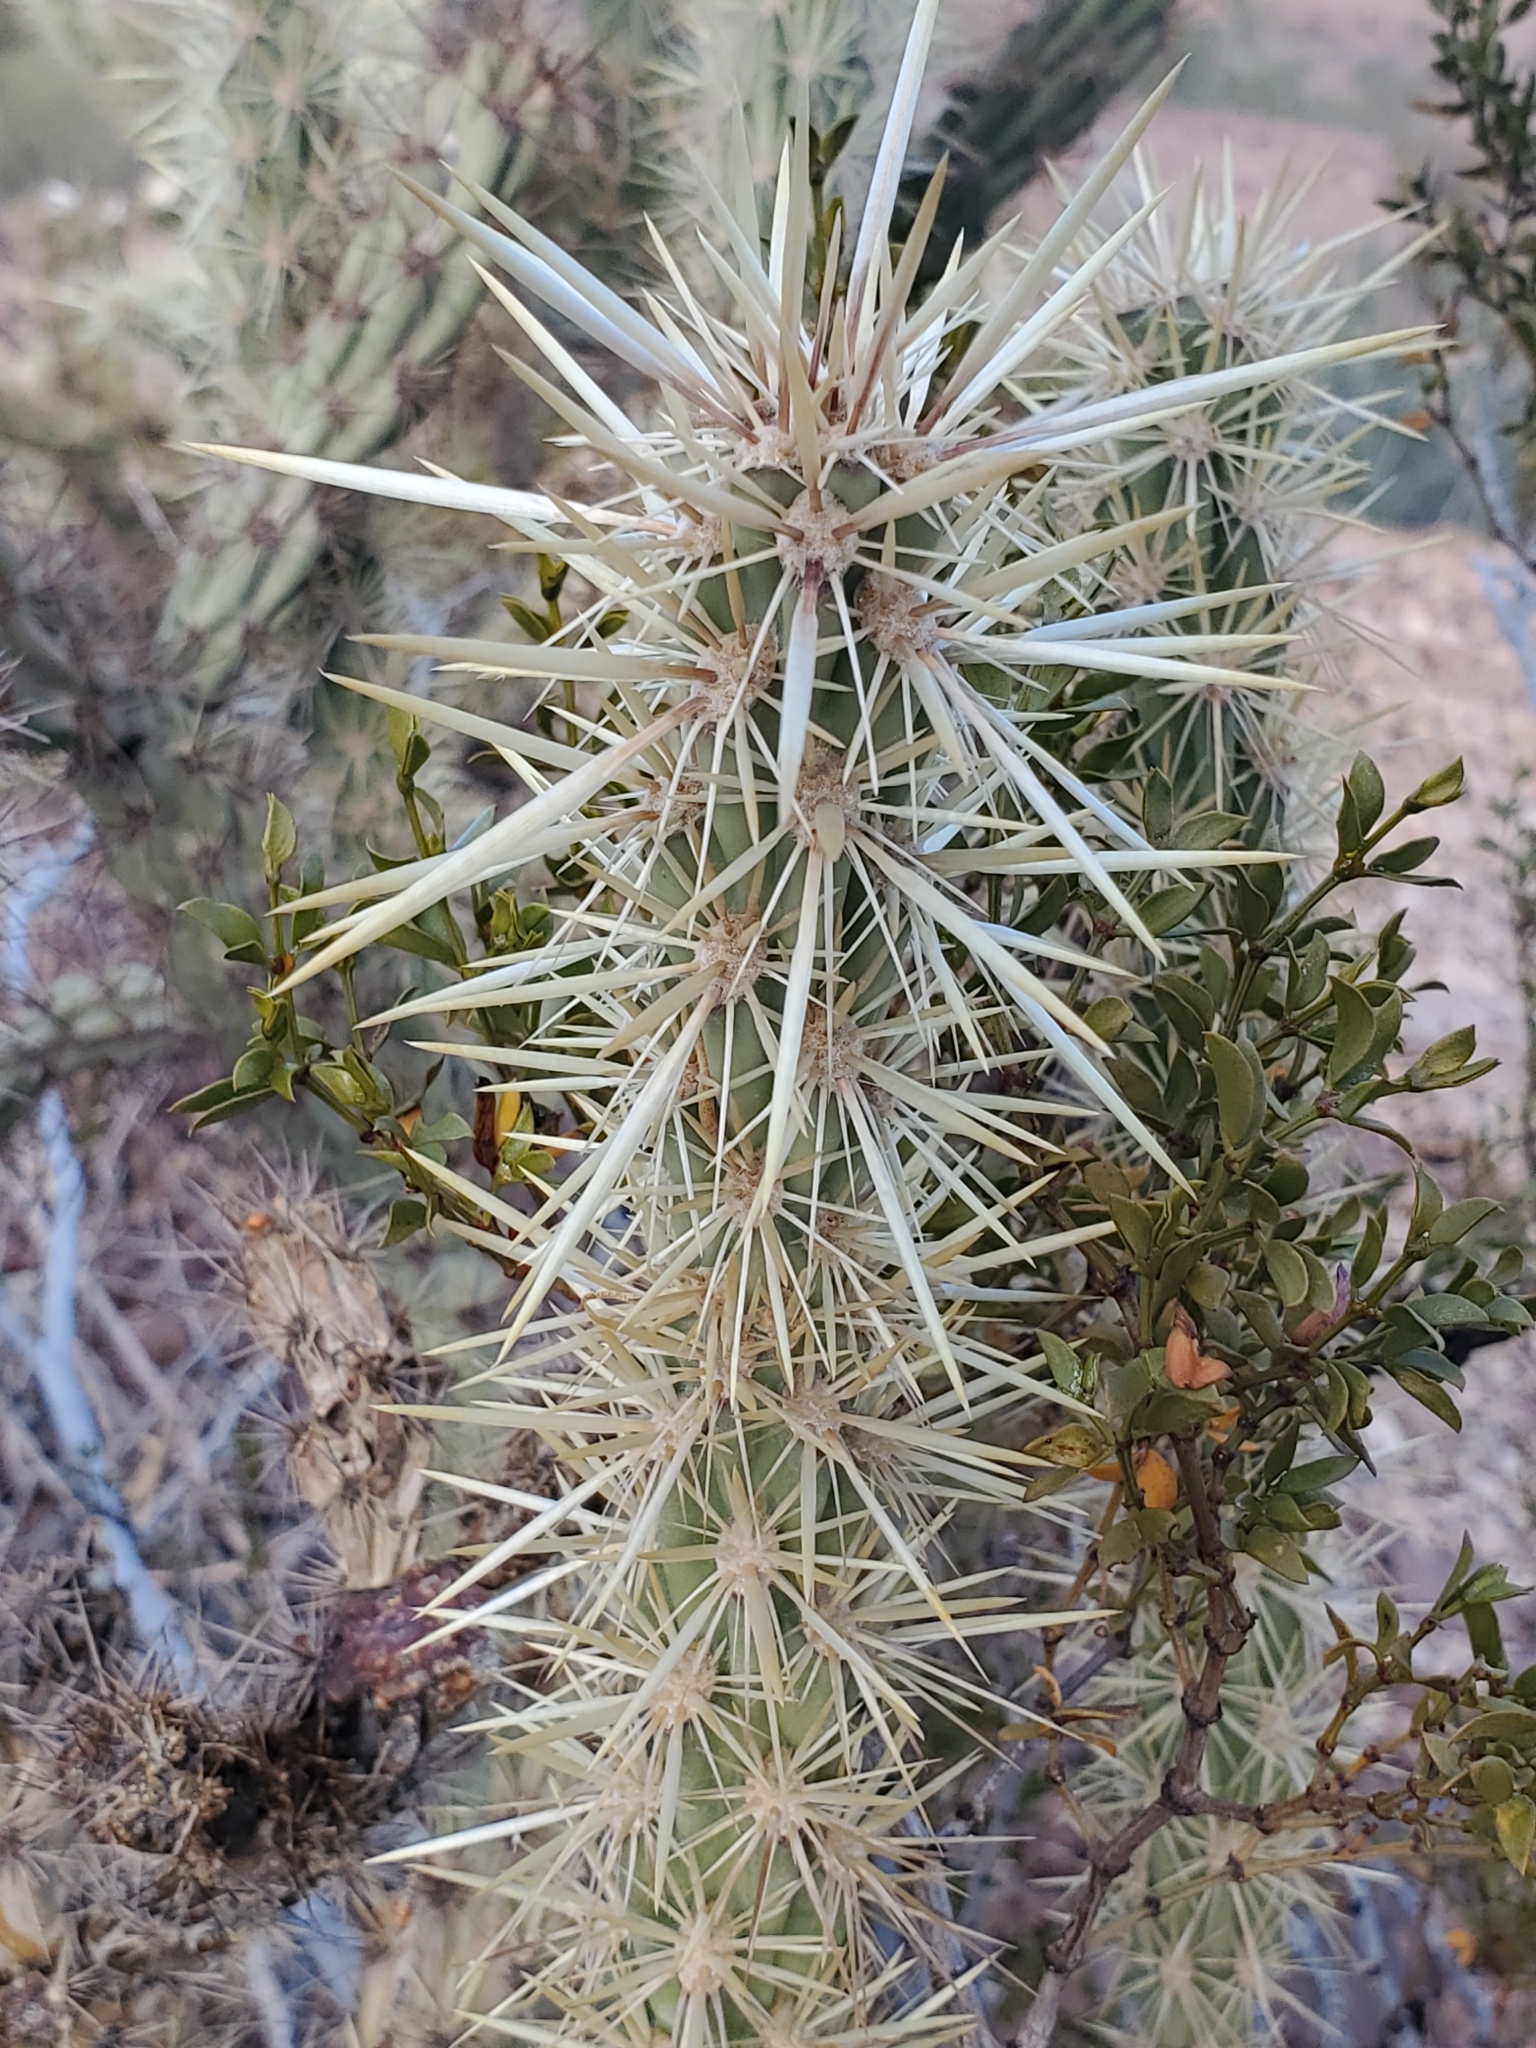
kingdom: Plantae
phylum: Tracheophyta
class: Magnoliopsida
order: Caryophyllales
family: Cactaceae
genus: Cylindropuntia
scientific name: Cylindropuntia acanthocarpa
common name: Buckhorn cholla
